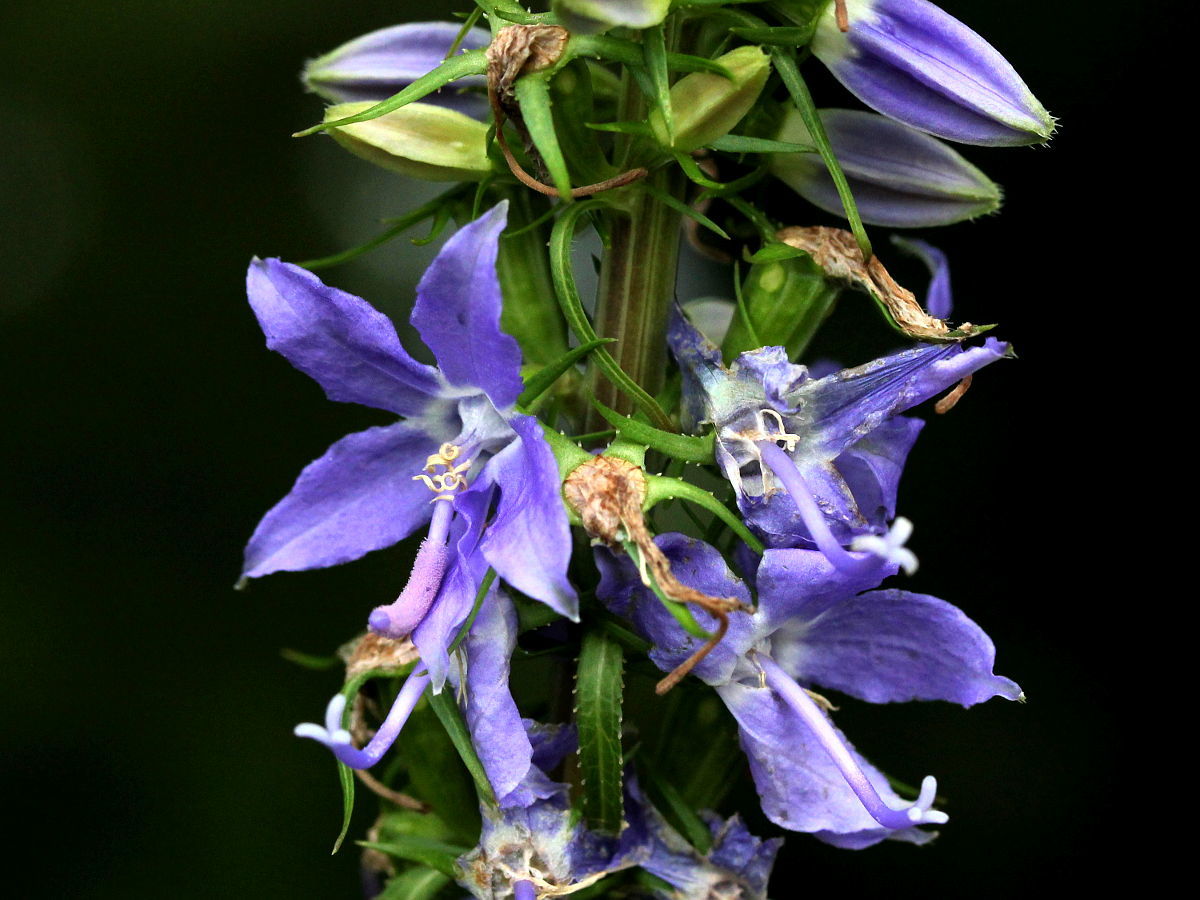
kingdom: Plantae
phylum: Tracheophyta
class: Magnoliopsida
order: Asterales
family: Campanulaceae
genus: Campanulastrum
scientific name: Campanulastrum americanum
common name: American bellflower
